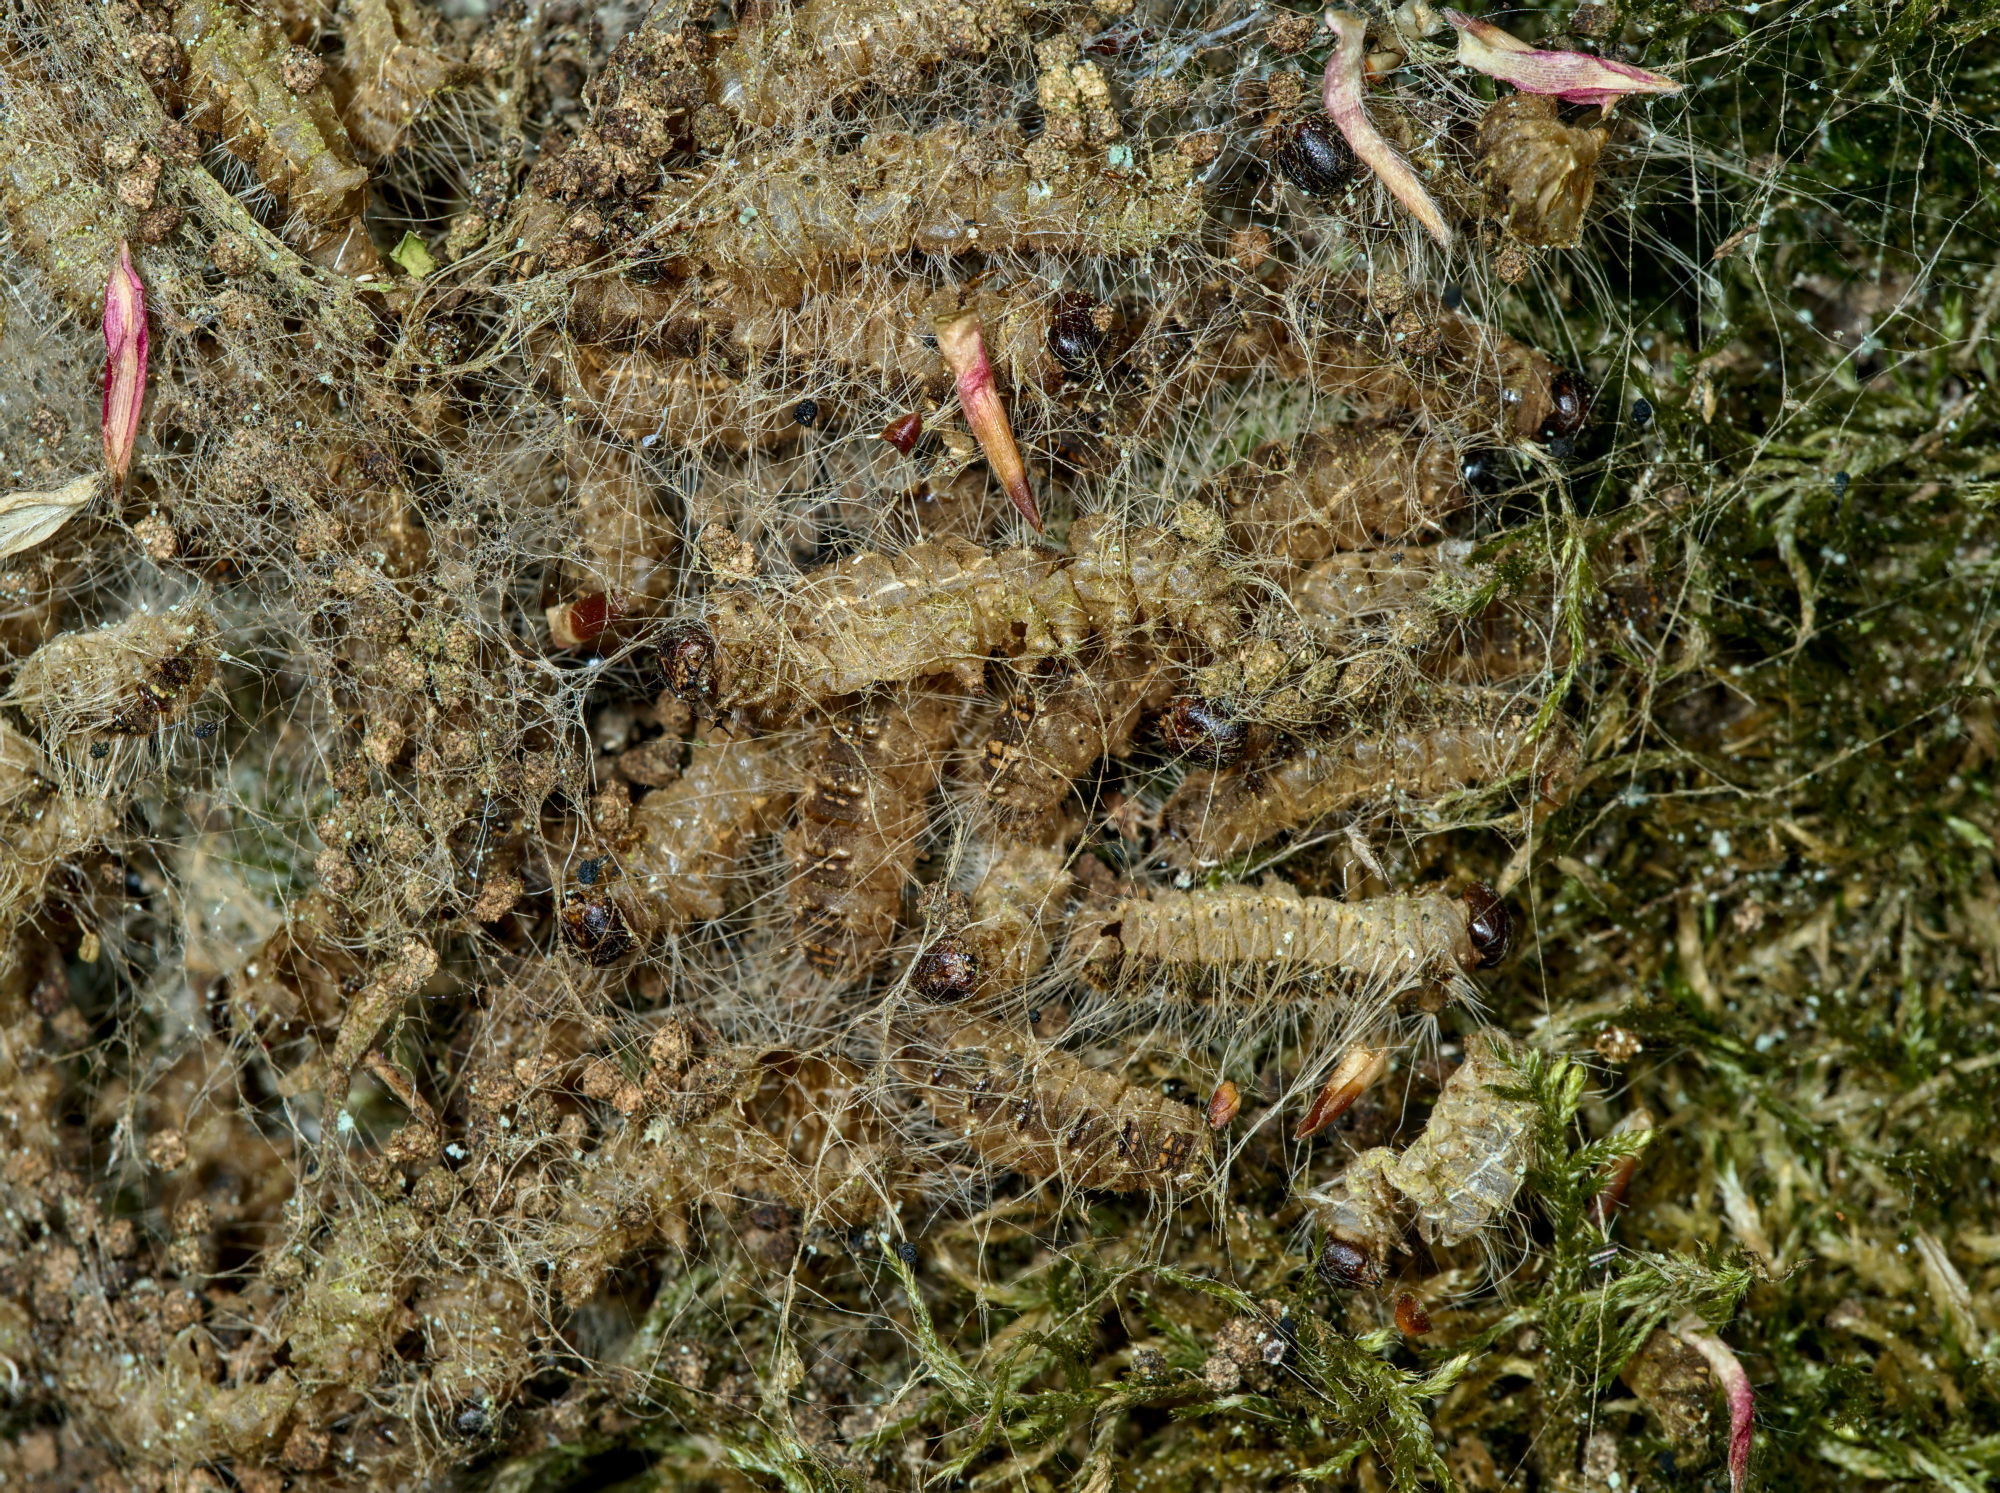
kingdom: Animalia
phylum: Arthropoda
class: Insecta
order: Lepidoptera
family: Notodontidae
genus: Thaumetopoea
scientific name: Thaumetopoea processionea
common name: Oak processionea
